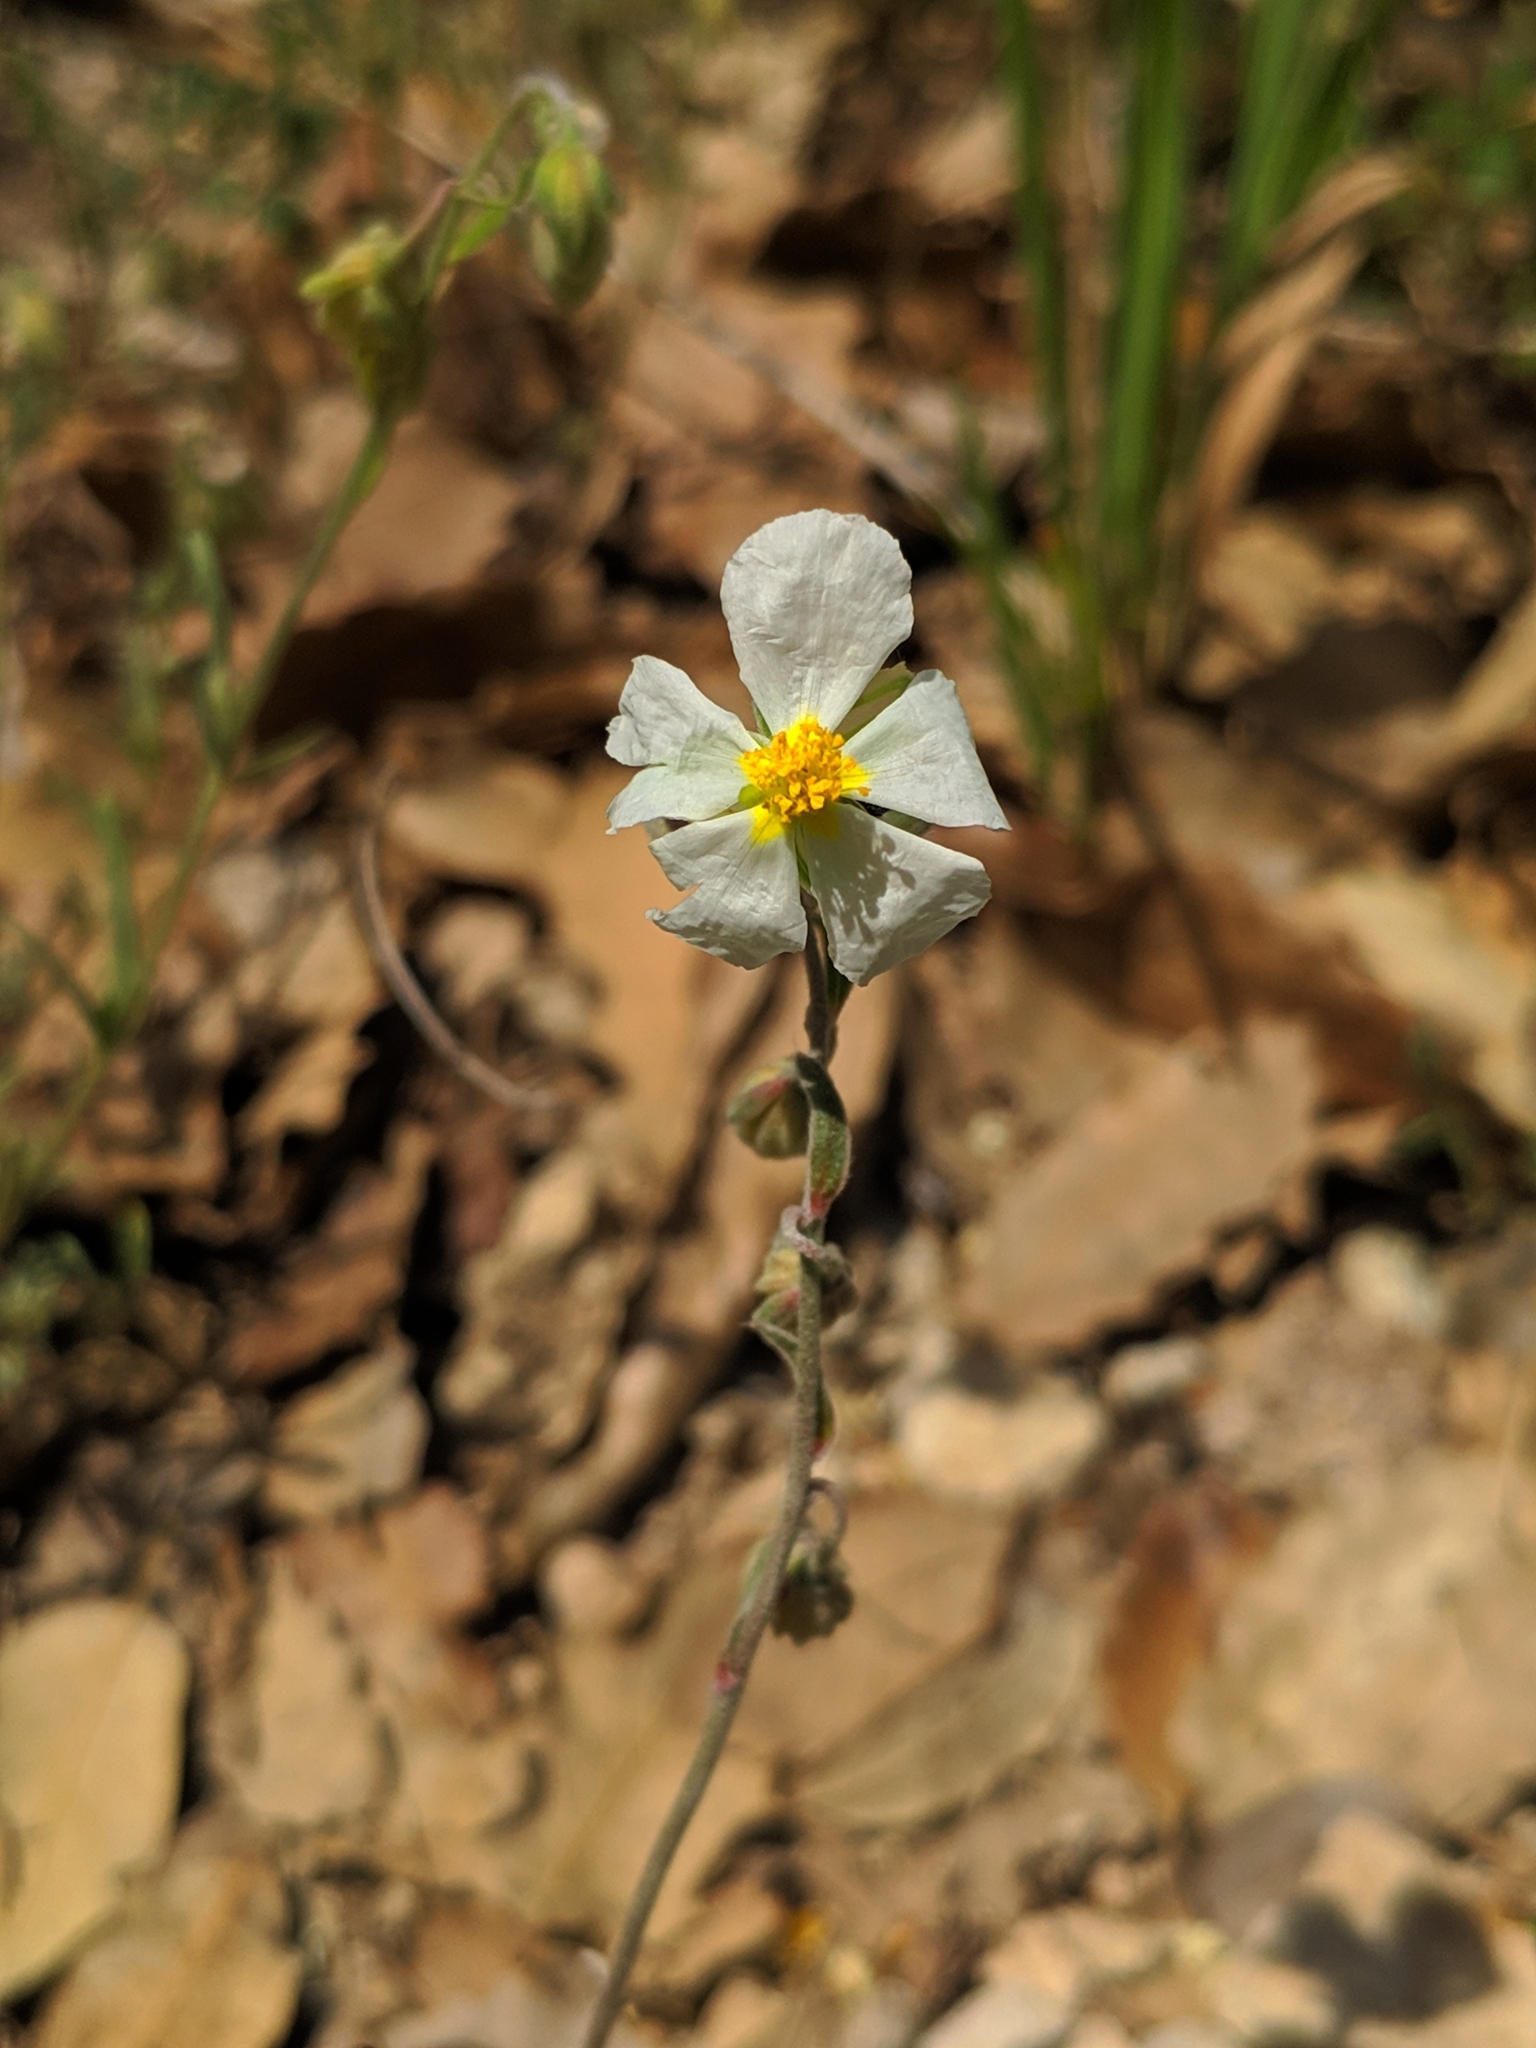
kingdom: Plantae
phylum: Tracheophyta
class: Magnoliopsida
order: Malvales
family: Cistaceae
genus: Helianthemum
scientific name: Helianthemum apenninum
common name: White rock-rose
